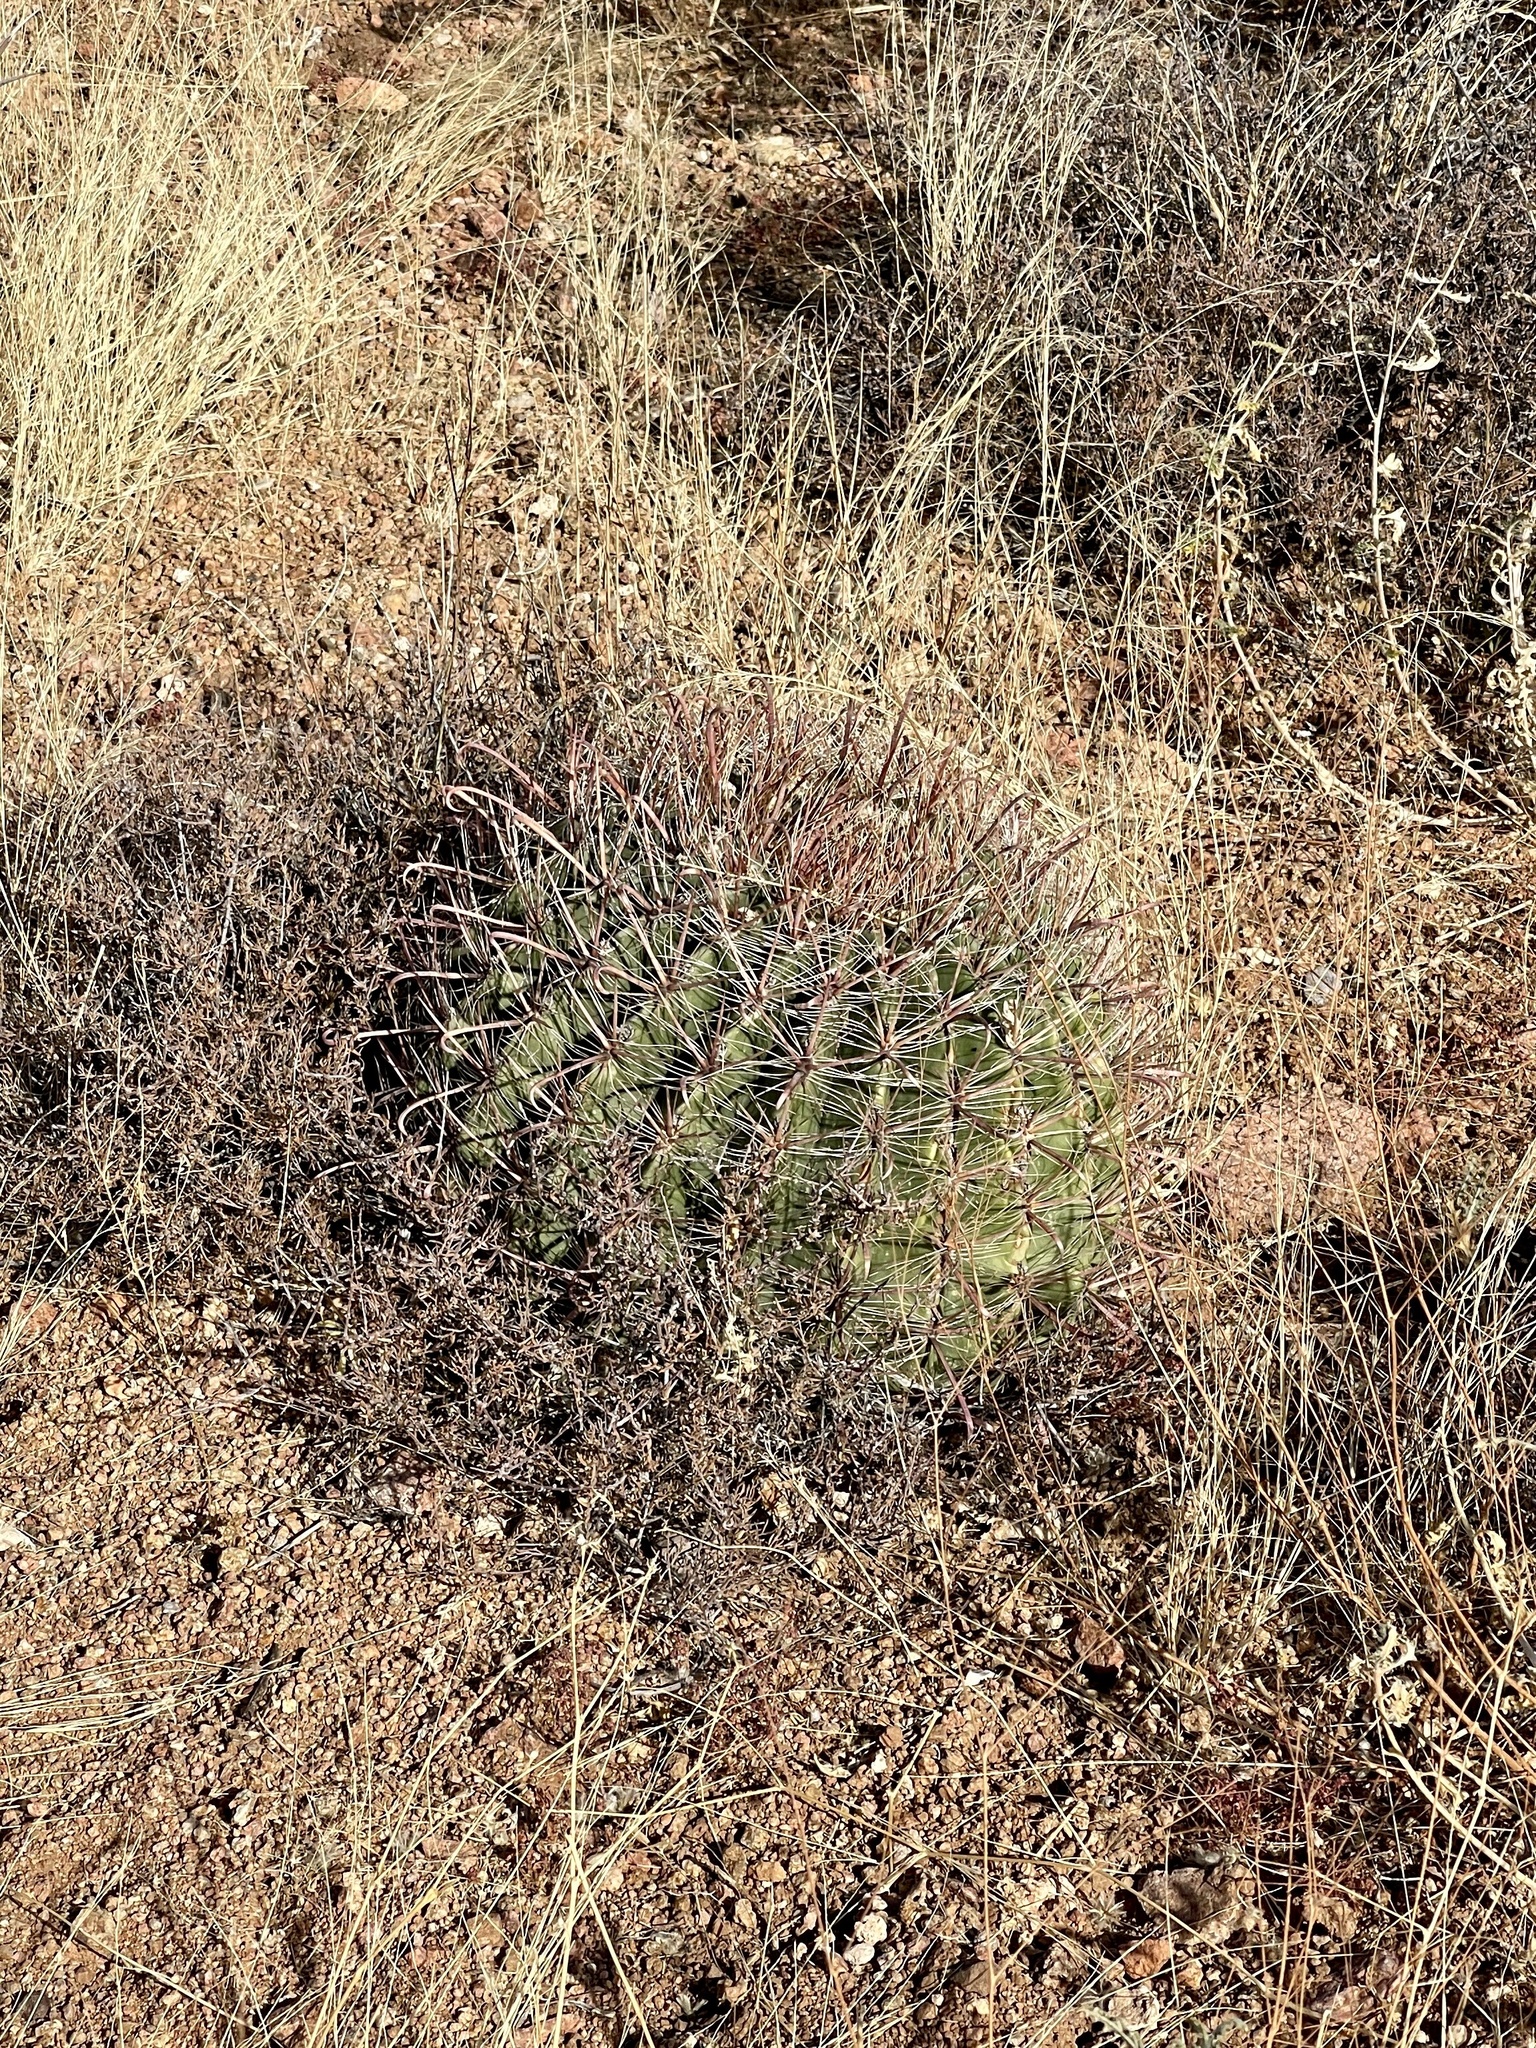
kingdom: Plantae
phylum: Tracheophyta
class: Magnoliopsida
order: Caryophyllales
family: Cactaceae
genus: Ferocactus
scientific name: Ferocactus wislizeni
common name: Candy barrel cactus
